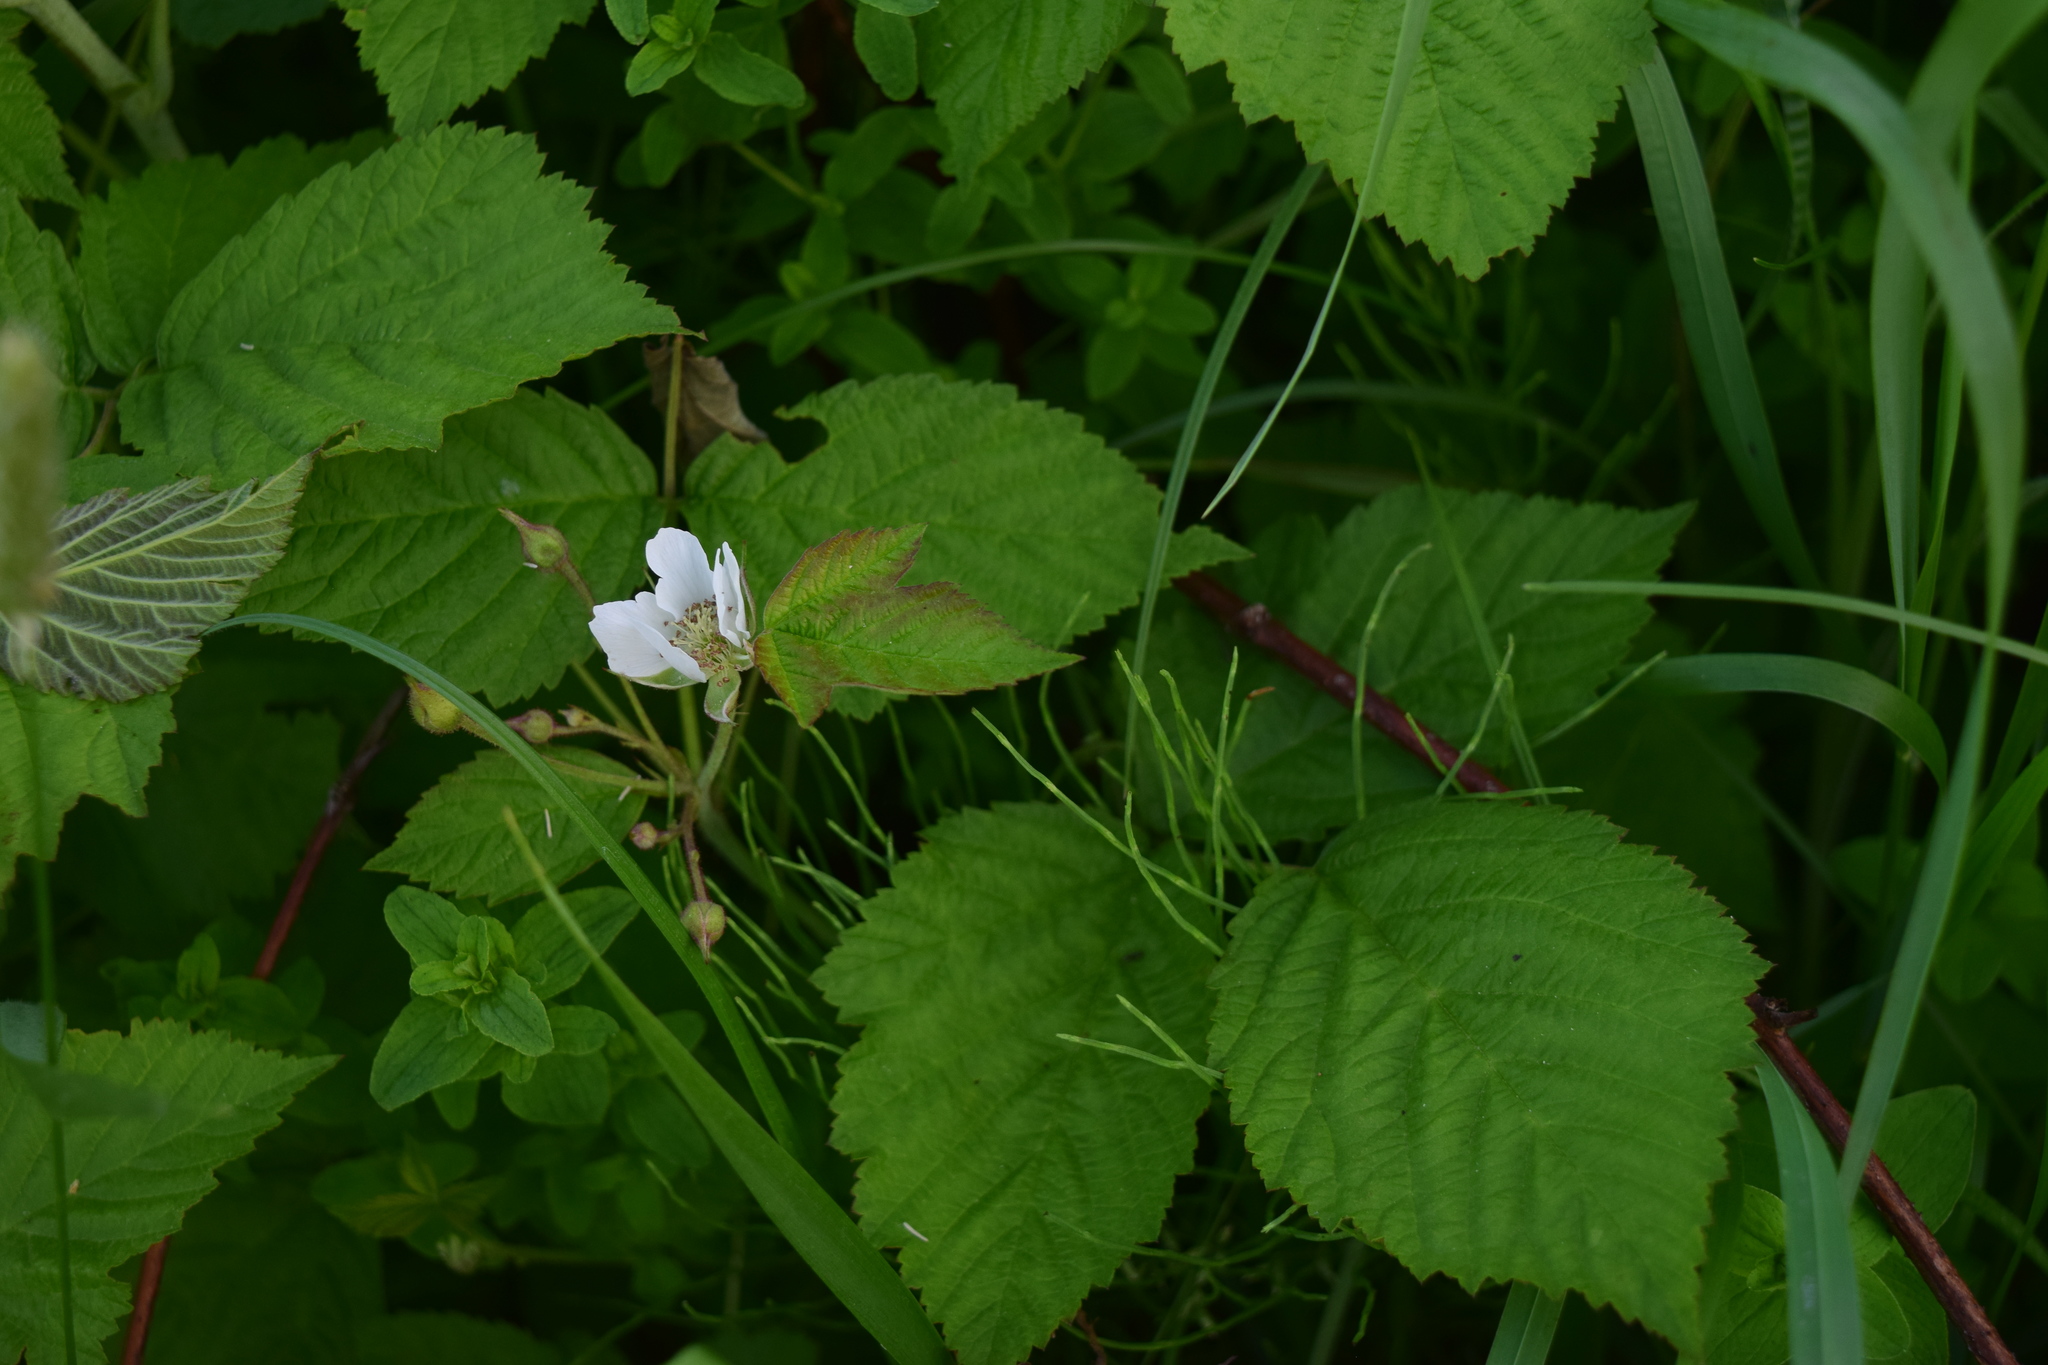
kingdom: Plantae
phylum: Tracheophyta
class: Magnoliopsida
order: Rosales
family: Rosaceae
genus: Rubus
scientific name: Rubus caesius
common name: Dewberry
